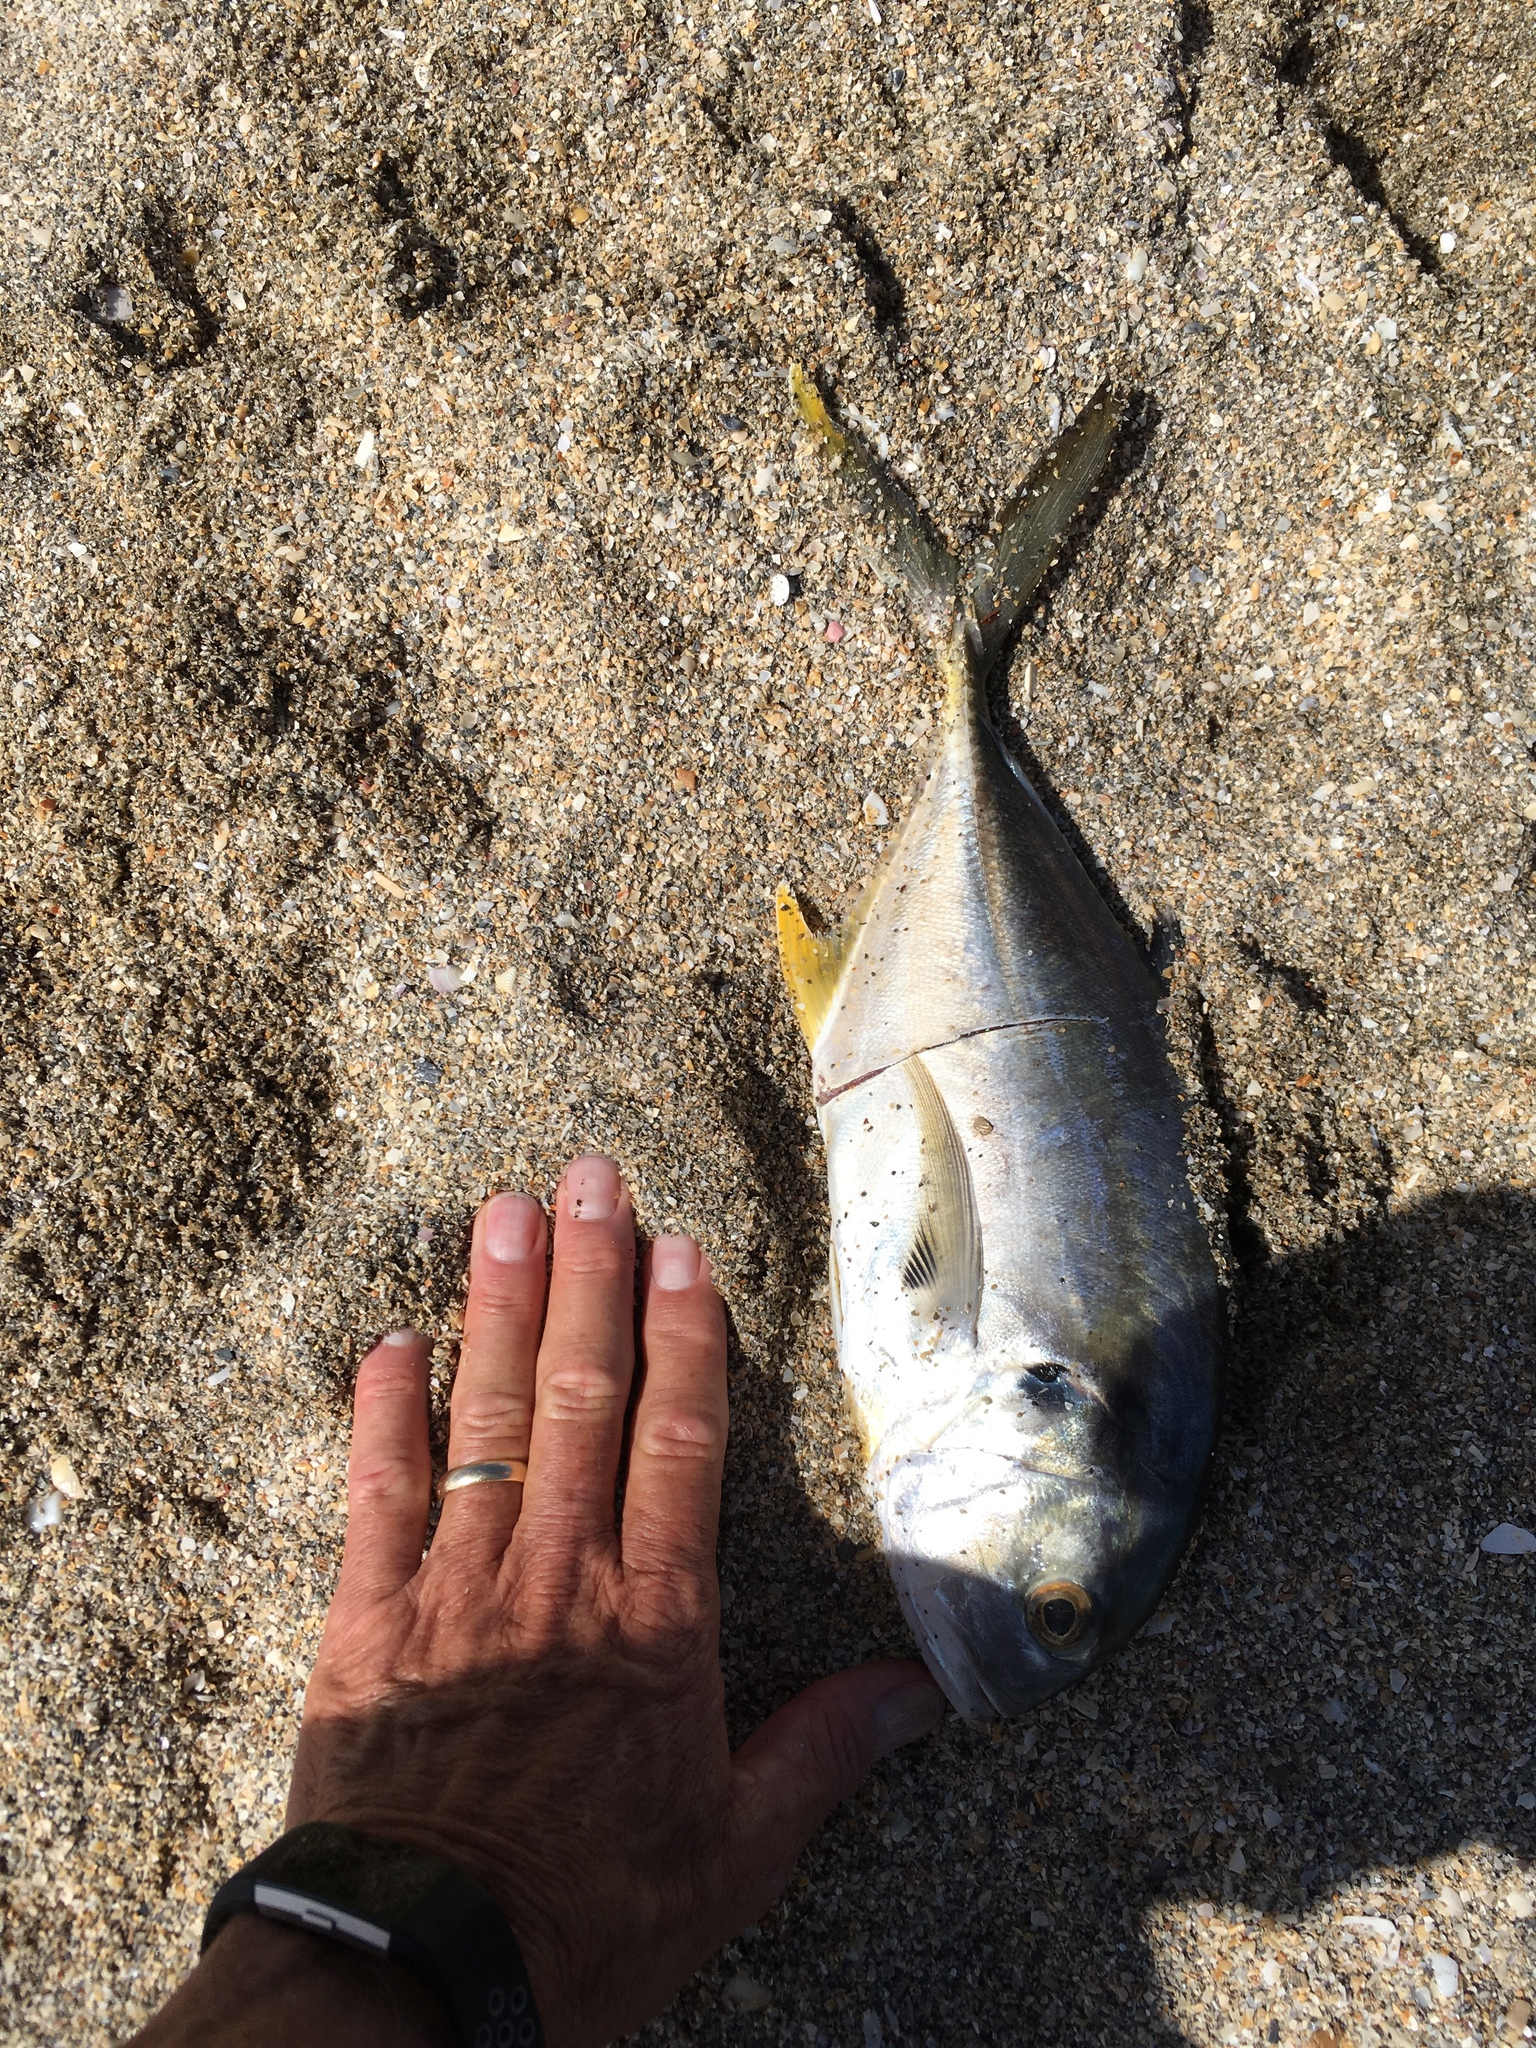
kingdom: Animalia
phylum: Chordata
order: Perciformes
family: Carangidae
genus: Caranx
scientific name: Caranx hippos
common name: Common jack
